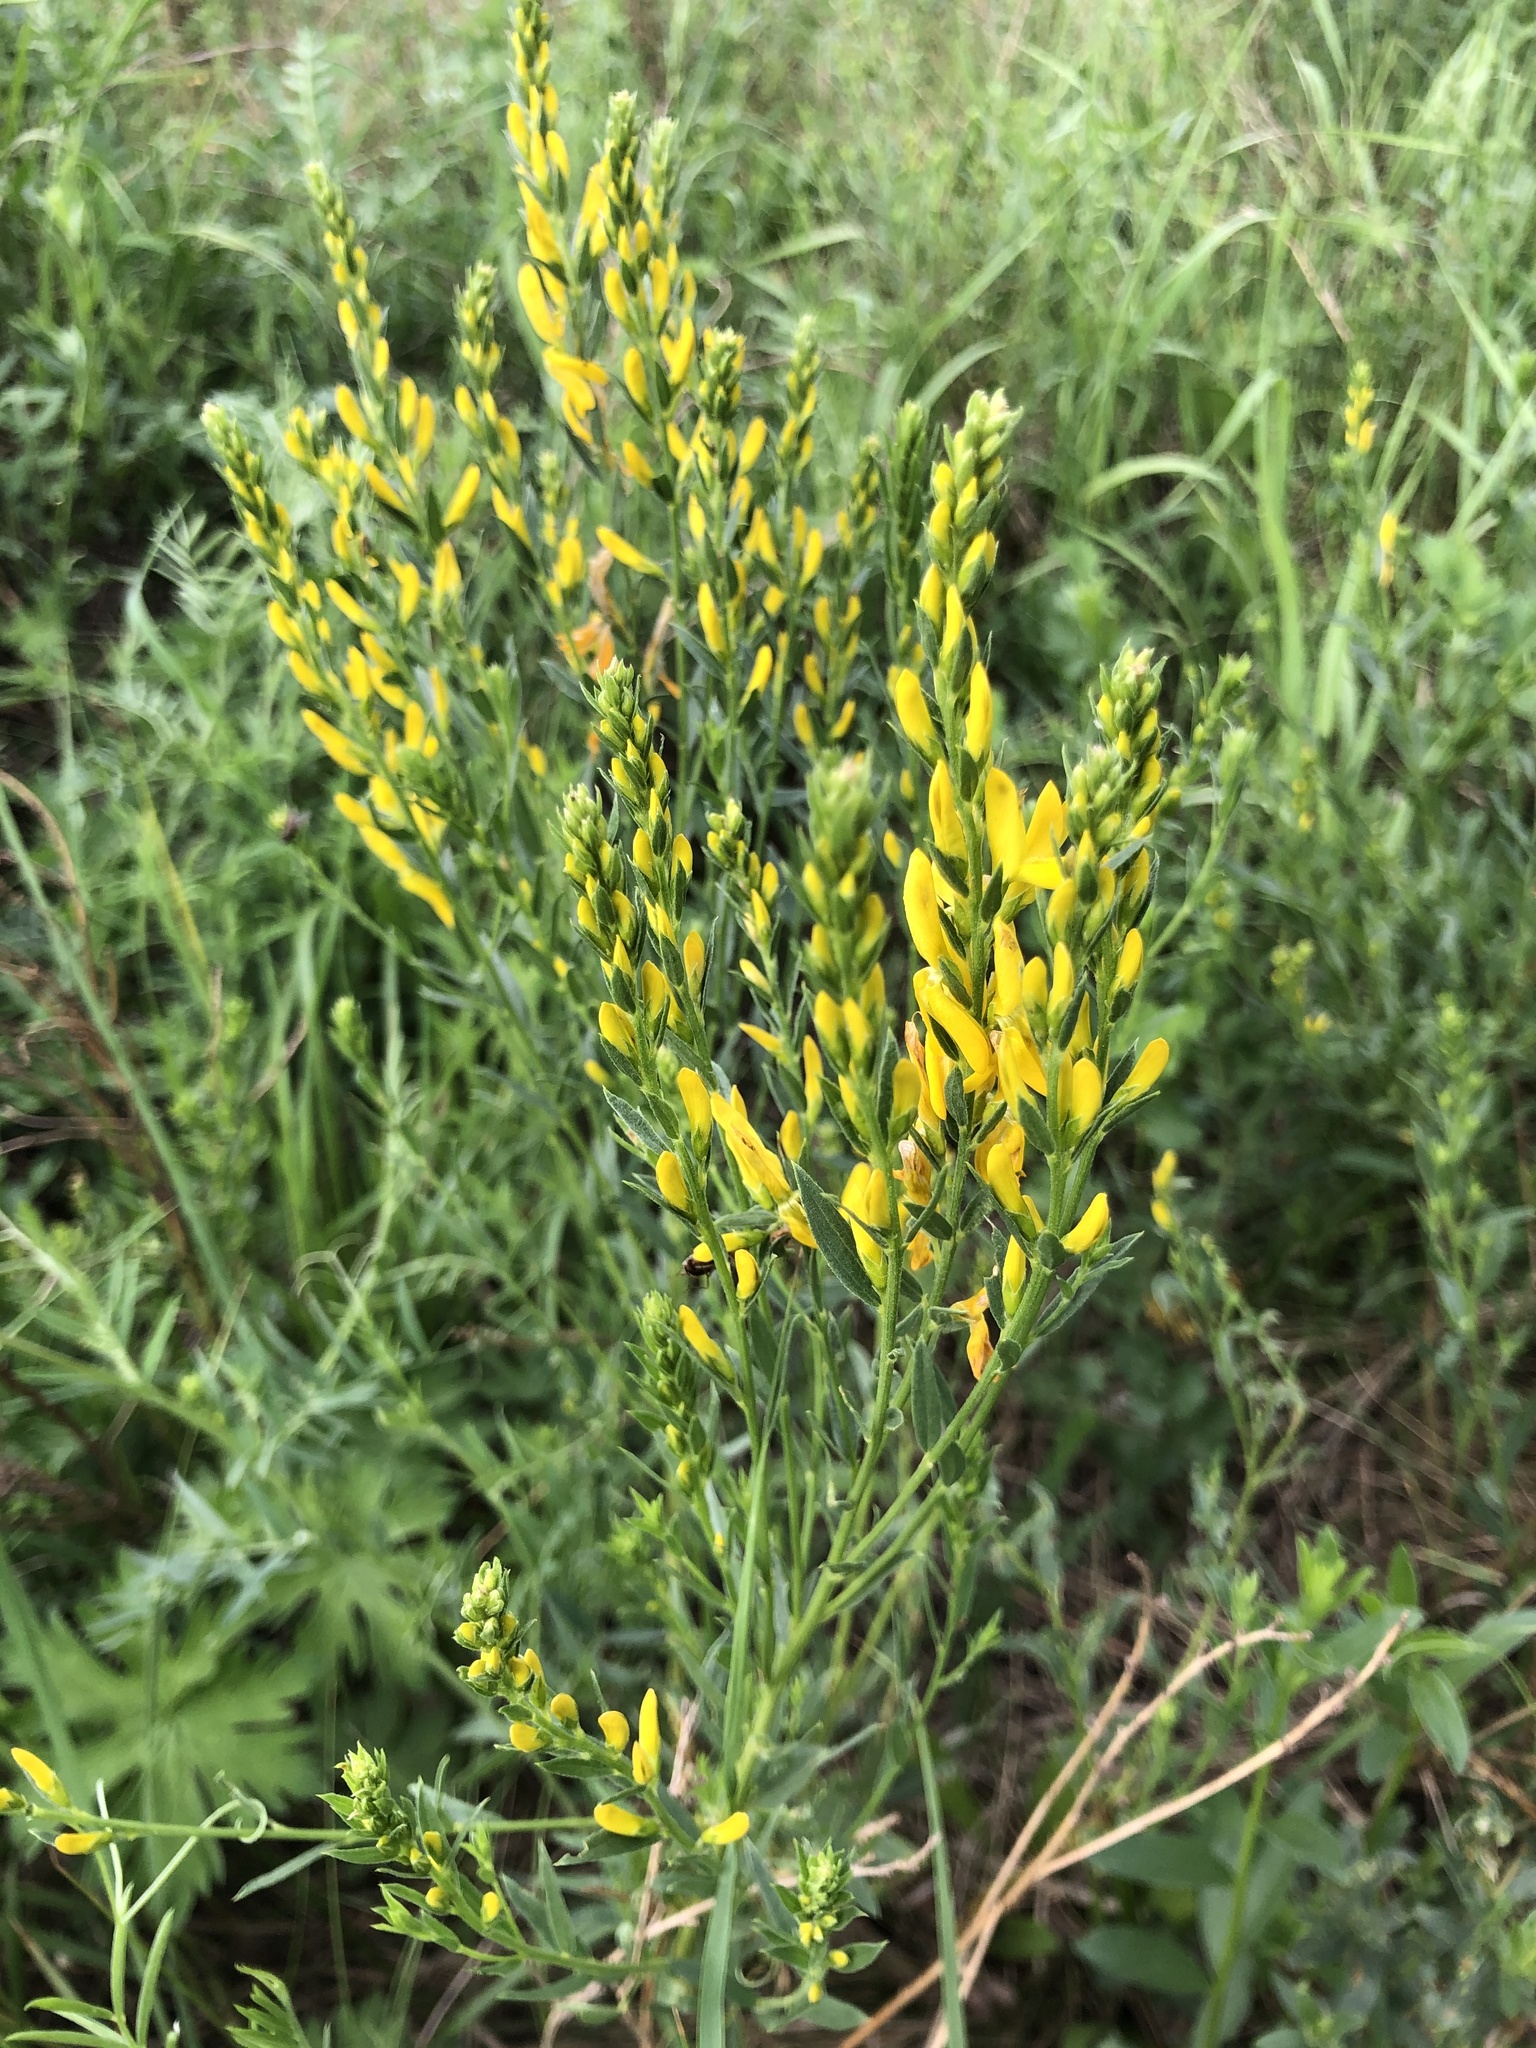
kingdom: Plantae
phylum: Tracheophyta
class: Magnoliopsida
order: Fabales
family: Fabaceae
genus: Genista
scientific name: Genista tinctoria
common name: Dyer's greenweed
